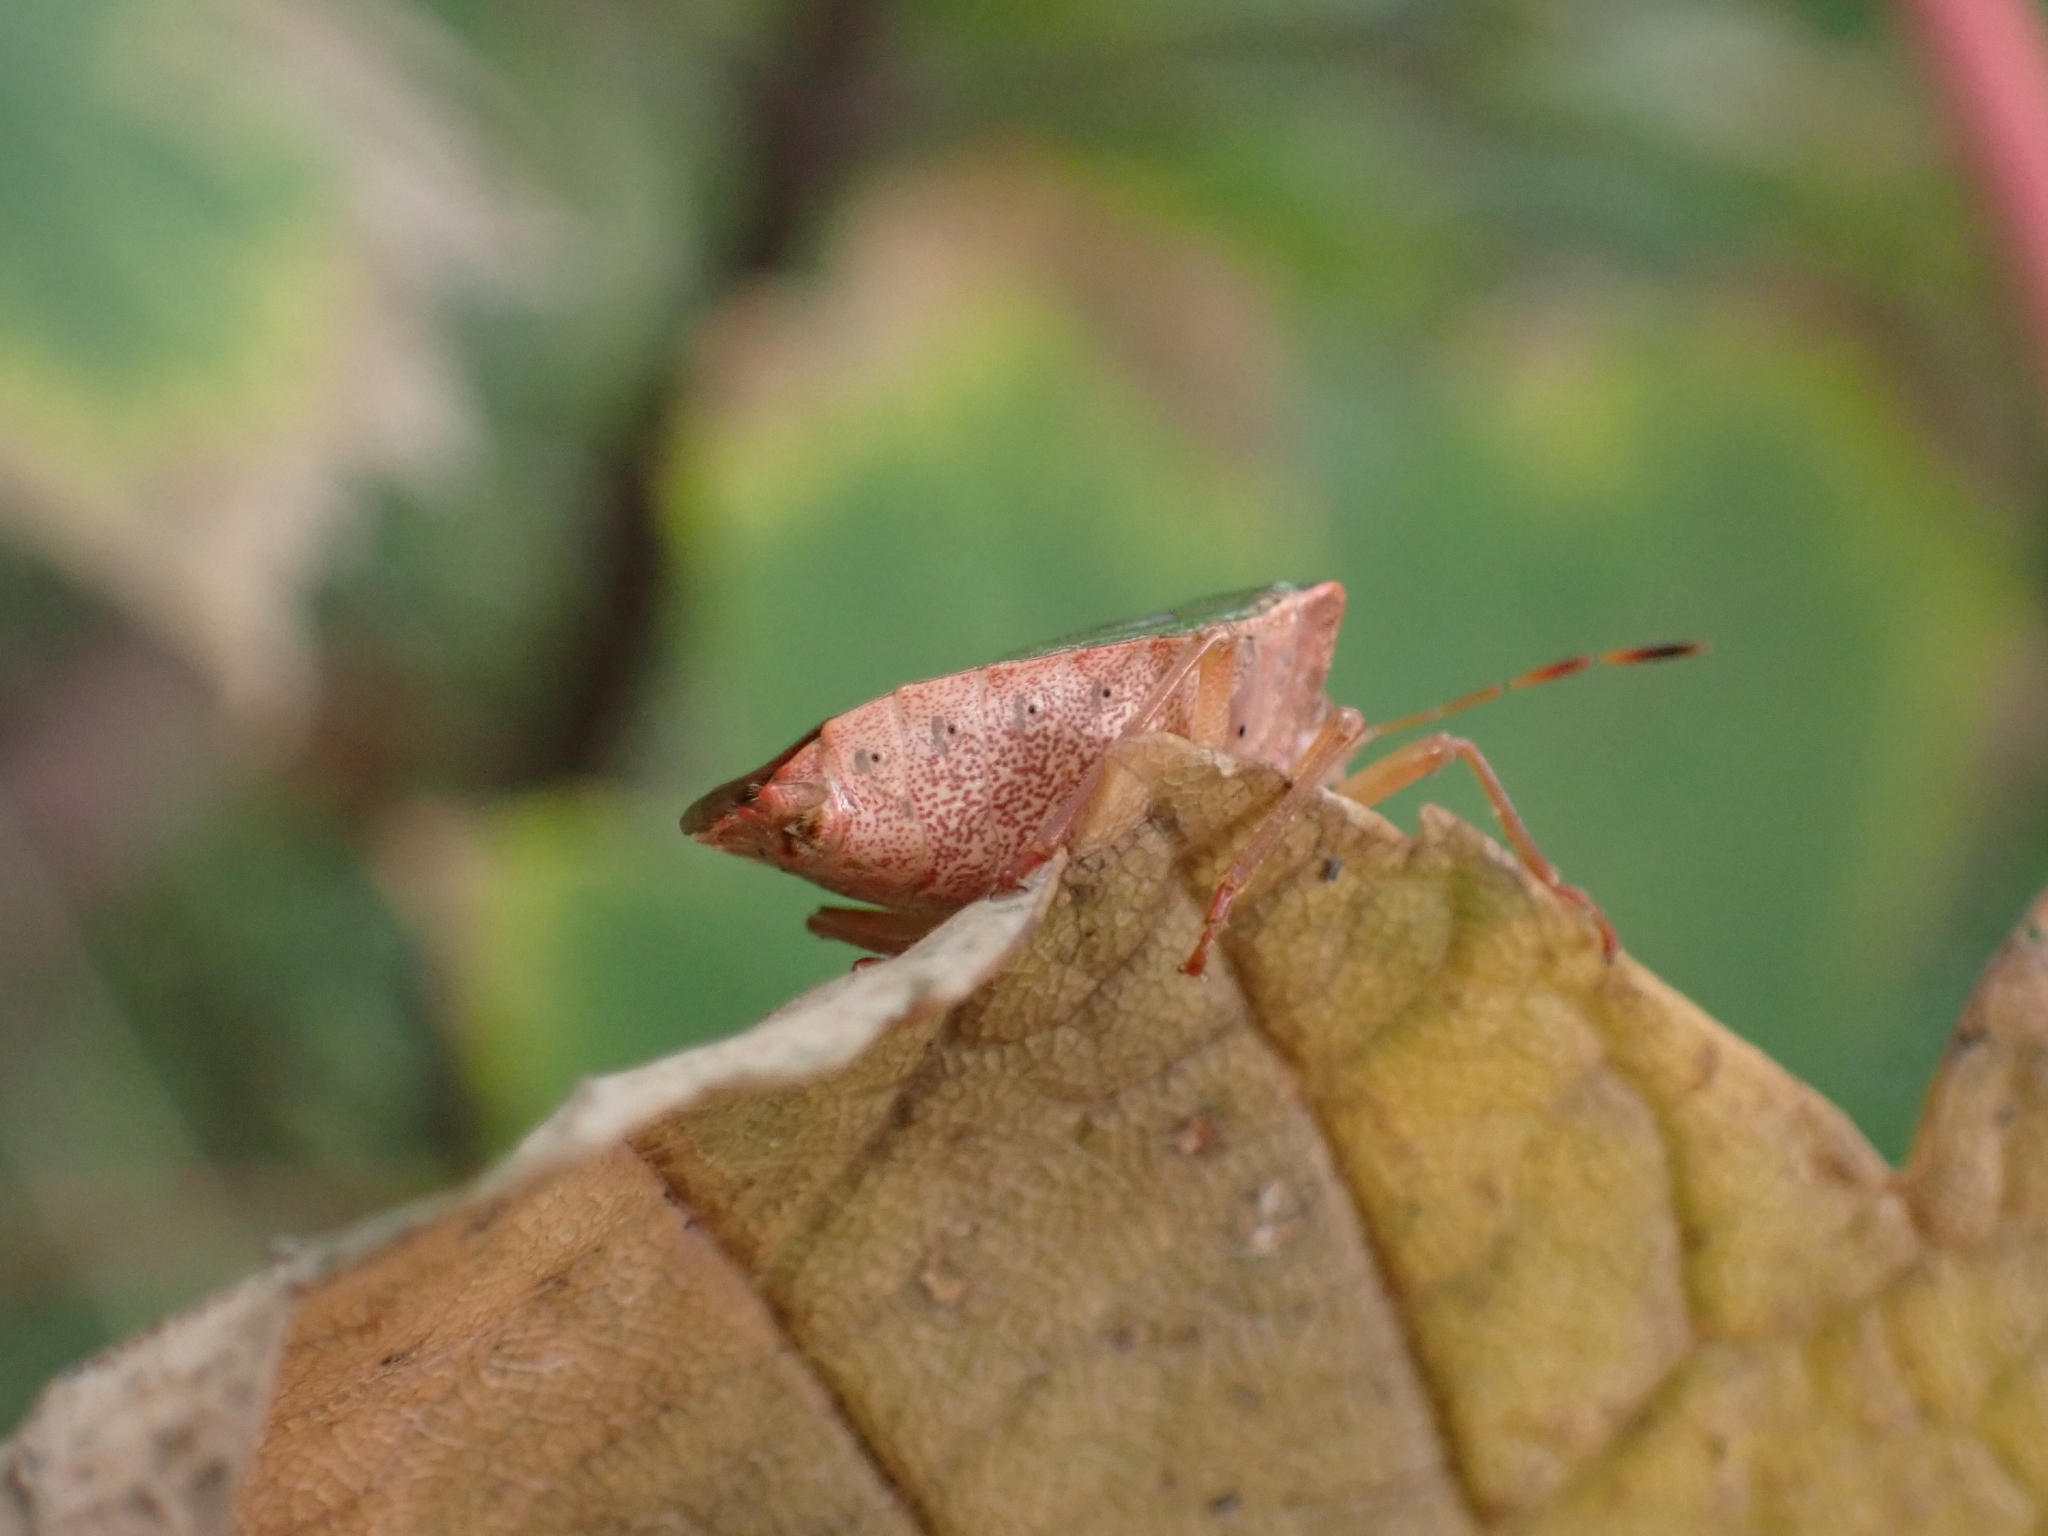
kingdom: Animalia
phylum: Arthropoda
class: Insecta
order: Hemiptera
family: Pentatomidae
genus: Palomena
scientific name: Palomena prasina
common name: Green shieldbug
